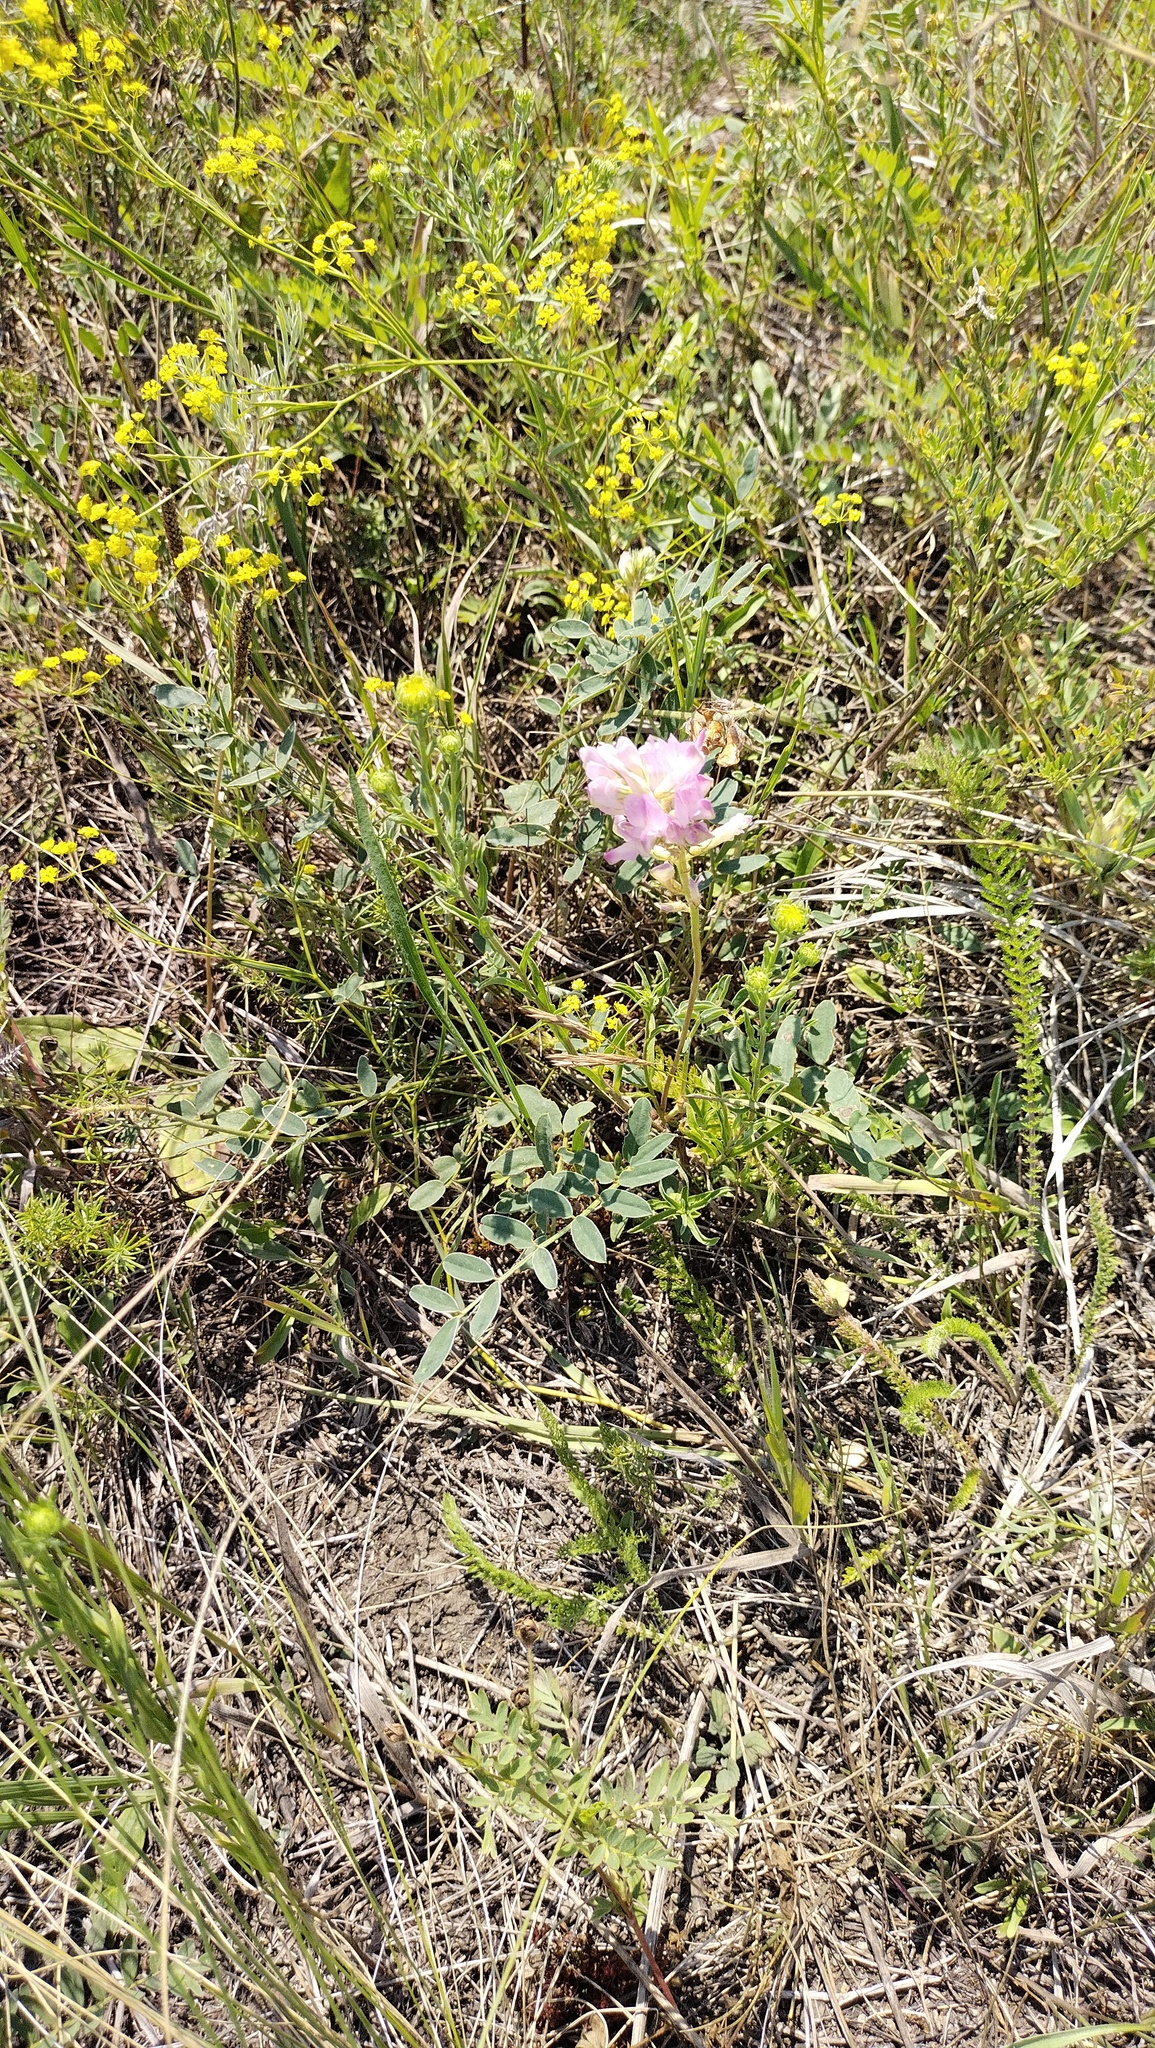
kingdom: Plantae
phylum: Tracheophyta
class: Magnoliopsida
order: Fabales
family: Fabaceae
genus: Hedysarum
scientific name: Hedysarum gmelinii
